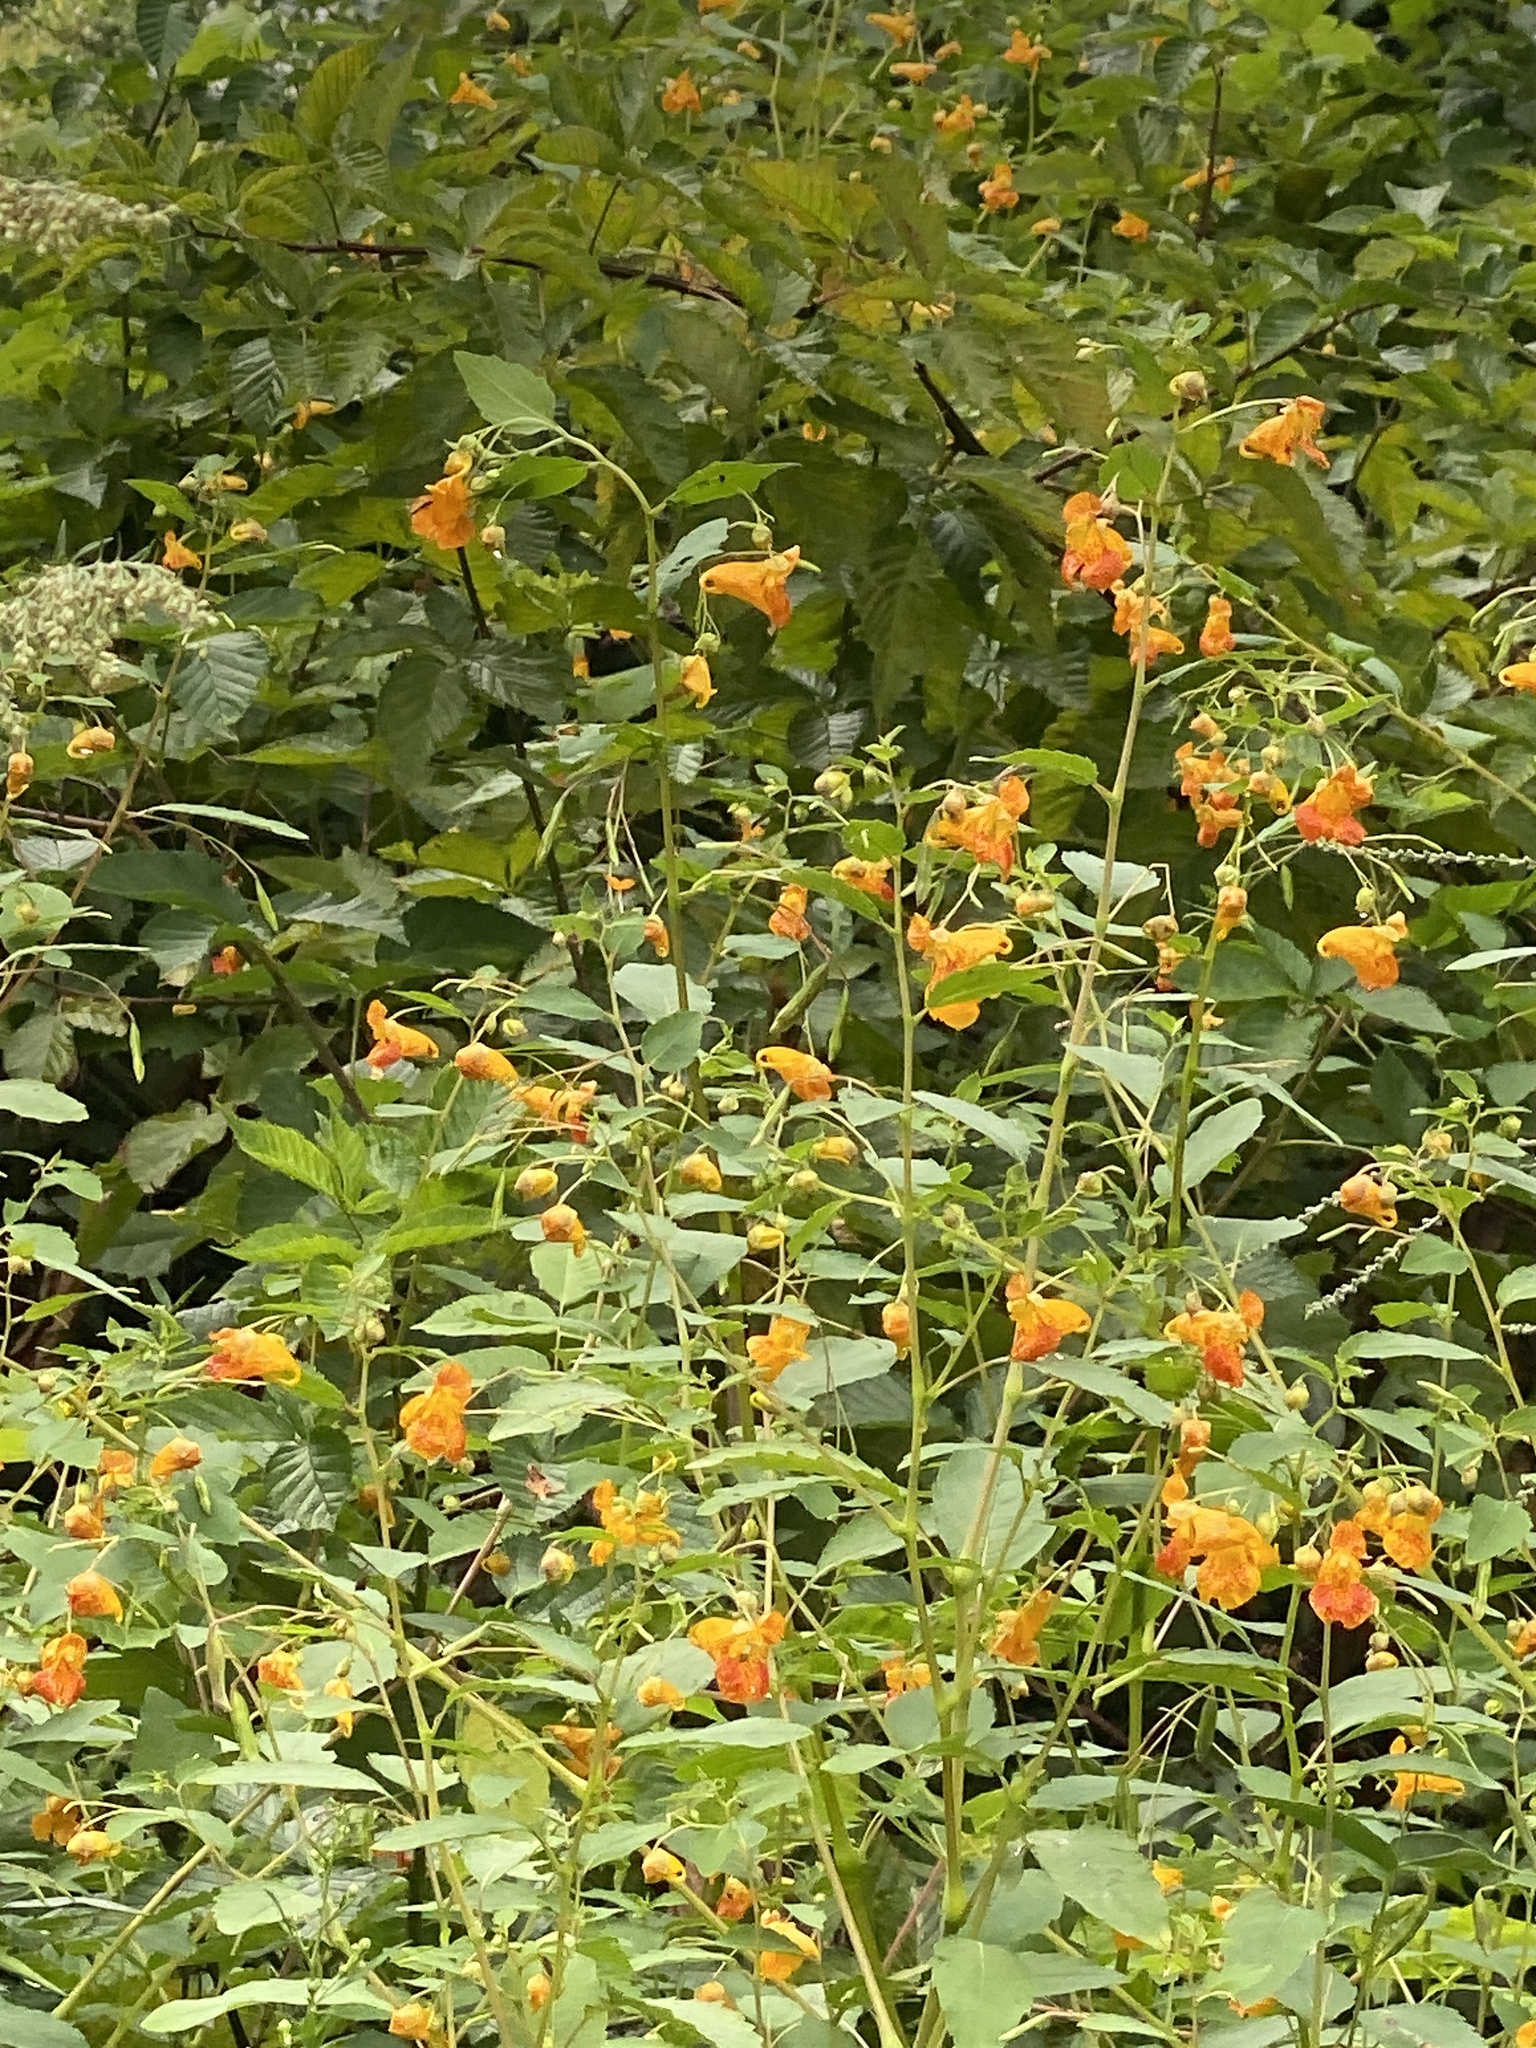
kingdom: Plantae
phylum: Tracheophyta
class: Magnoliopsida
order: Ericales
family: Balsaminaceae
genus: Impatiens
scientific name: Impatiens capensis
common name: Orange balsam
